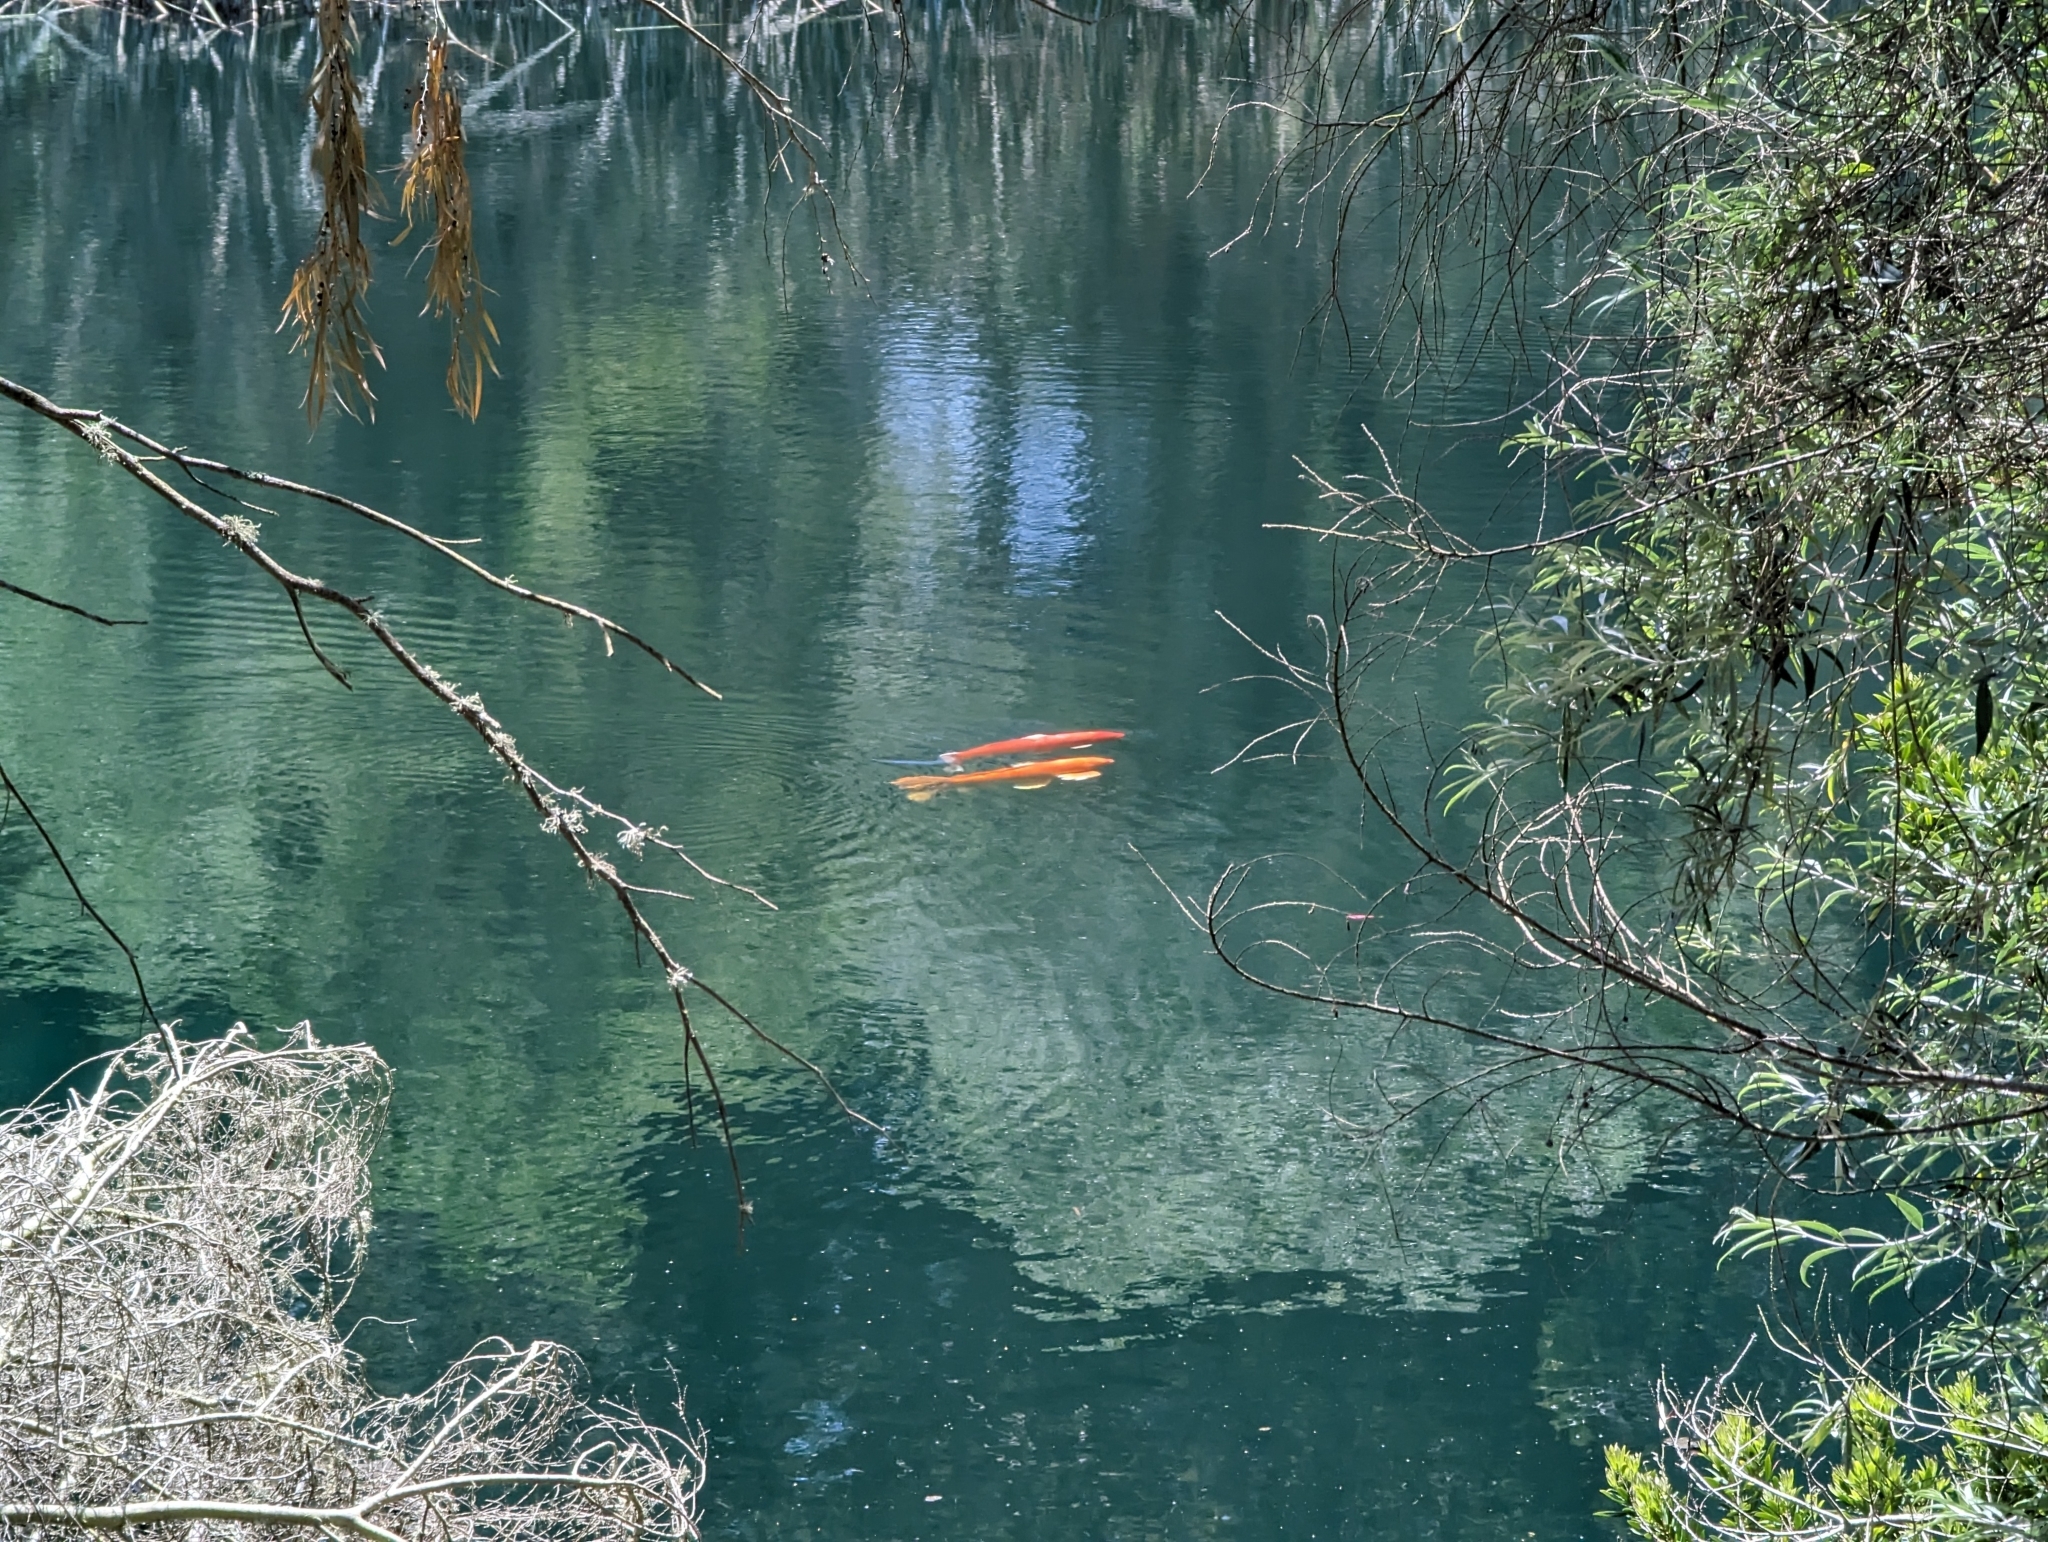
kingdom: Animalia
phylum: Chordata
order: Cypriniformes
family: Cyprinidae
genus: Cyprinus
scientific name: Cyprinus rubrofuscus
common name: Koi
